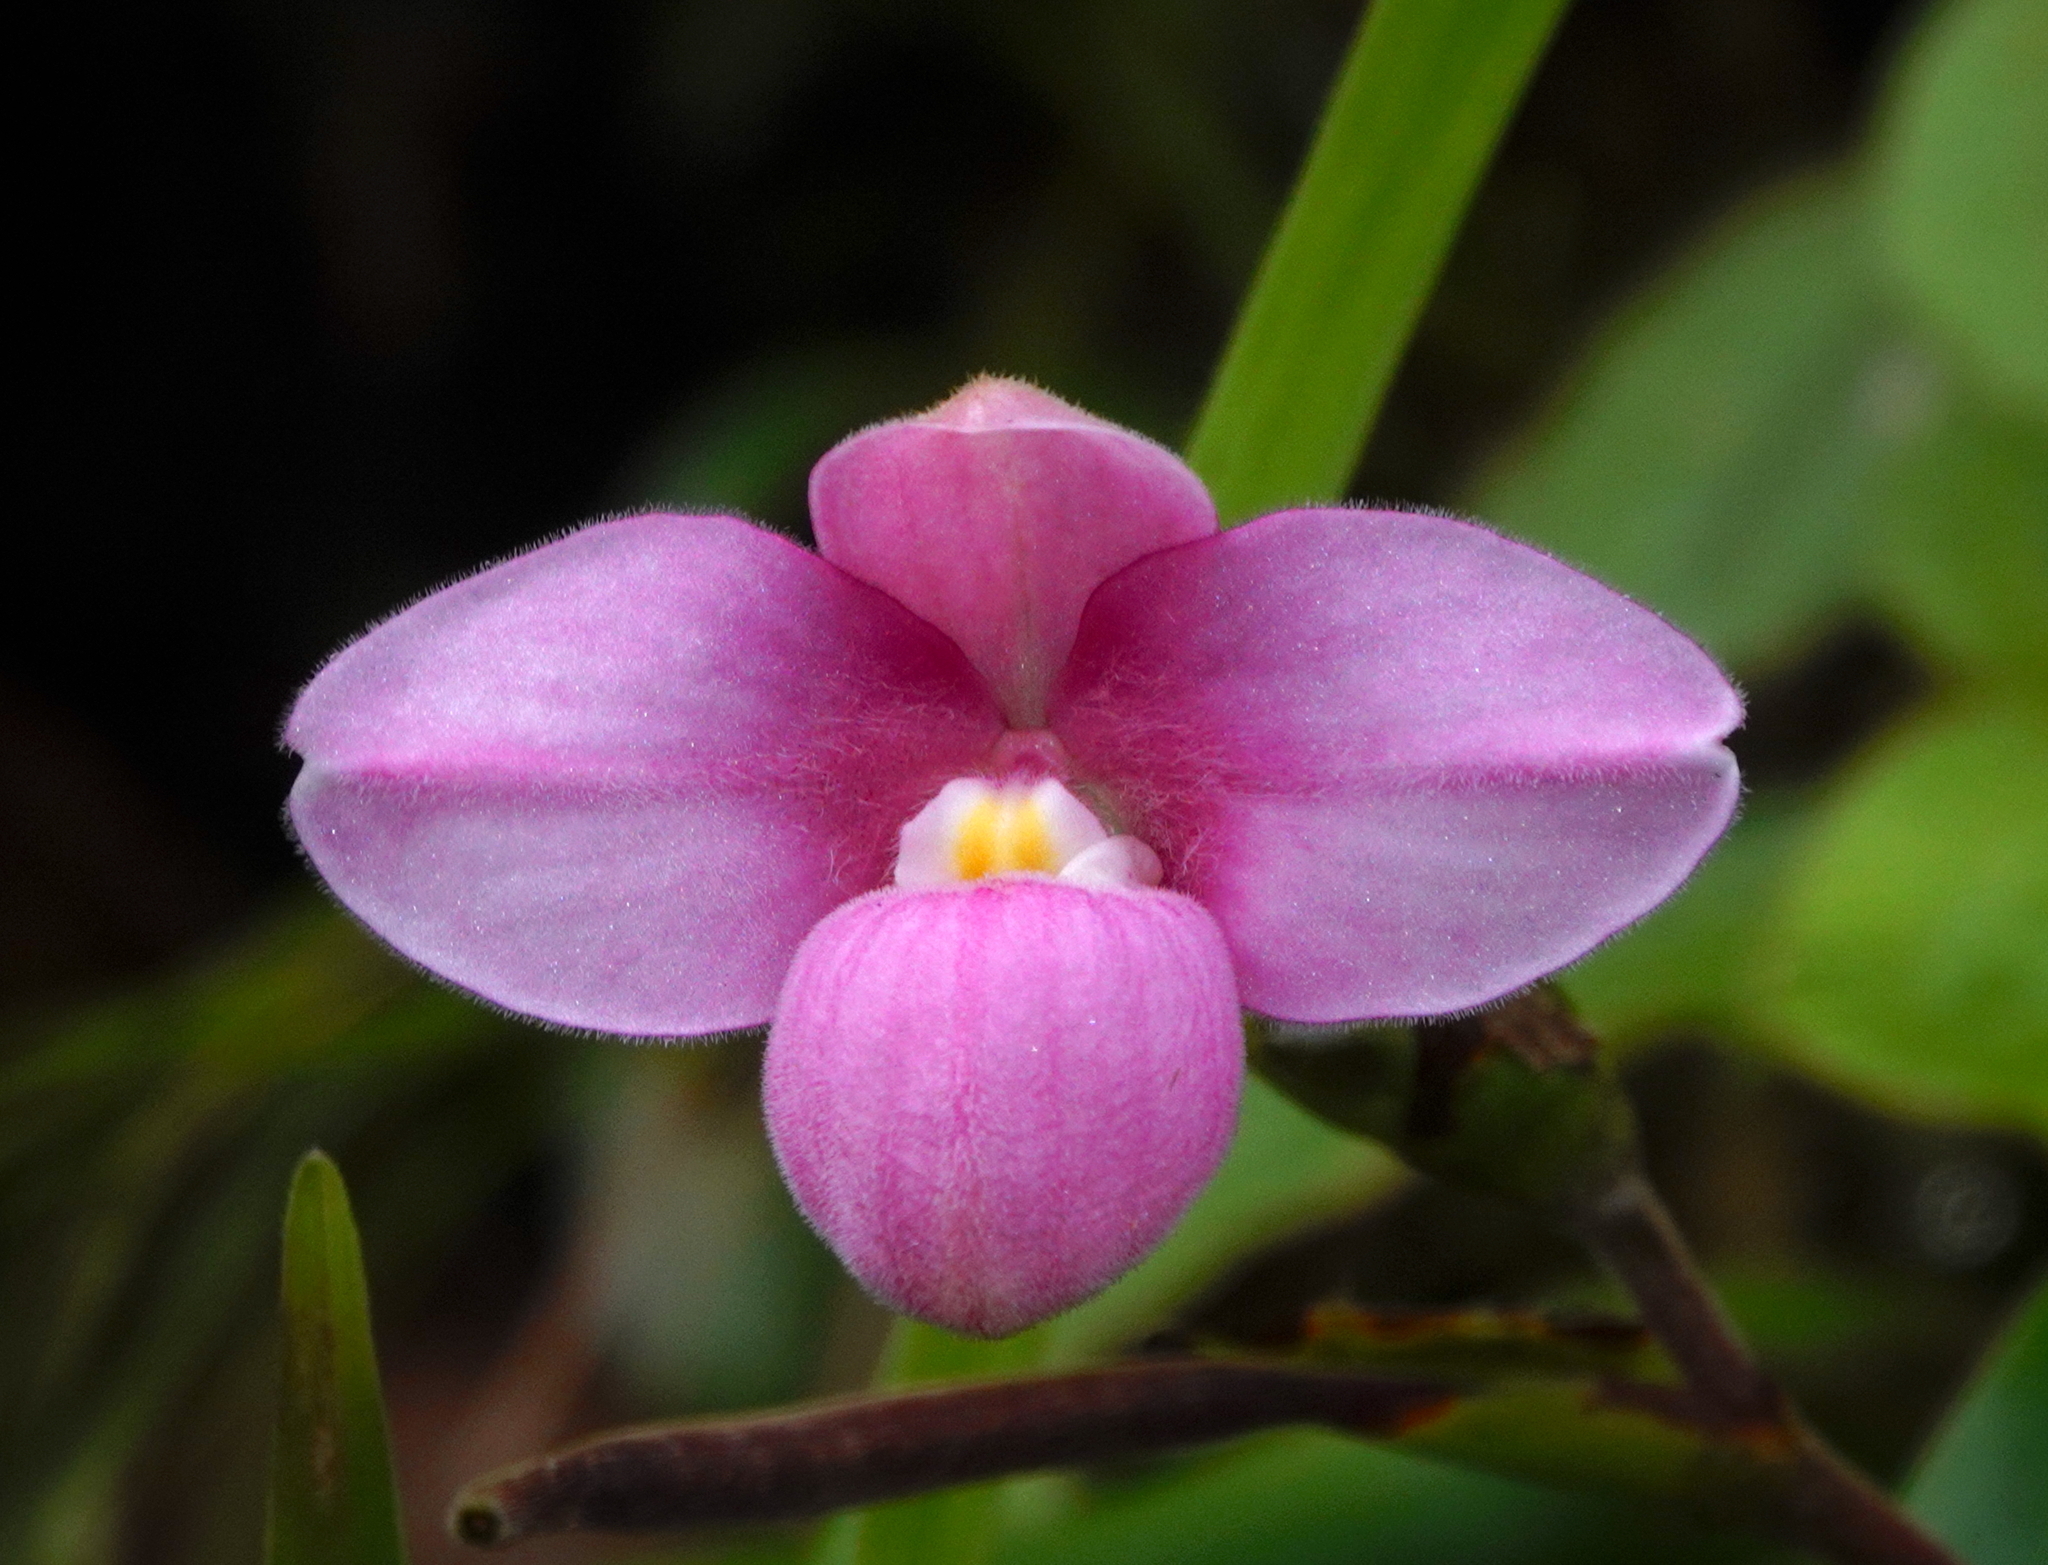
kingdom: Plantae
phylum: Tracheophyta
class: Liliopsida
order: Asparagales
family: Orchidaceae
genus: Phragmipedium
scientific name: Phragmipedium narinense
